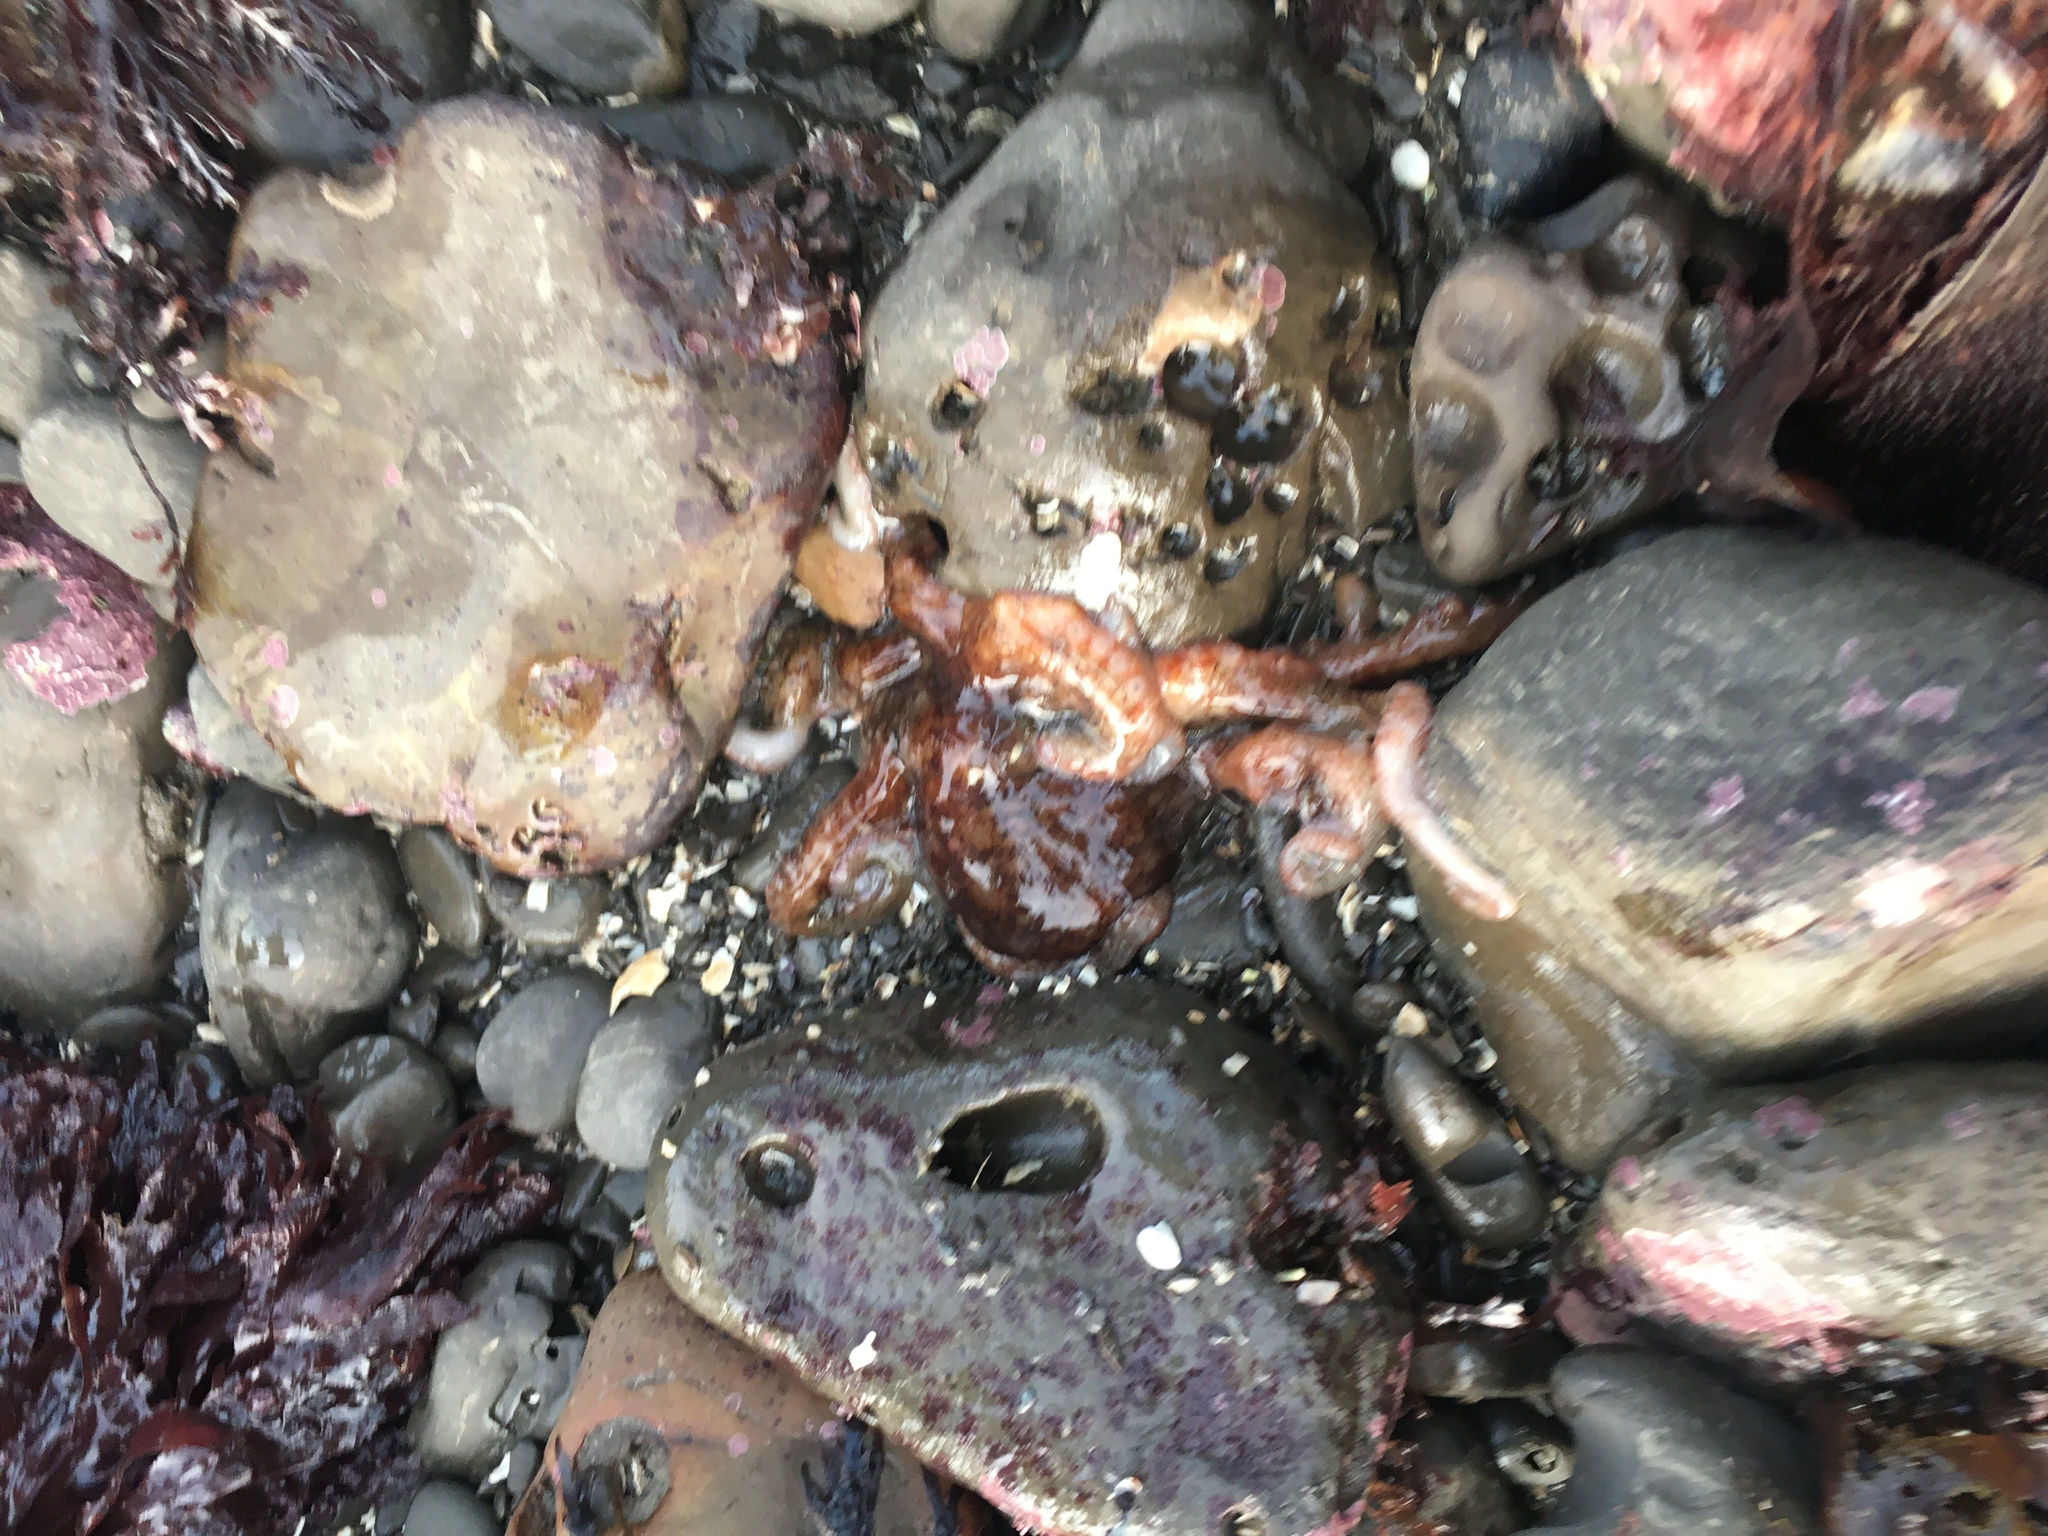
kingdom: Animalia
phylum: Mollusca
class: Cephalopoda
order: Octopoda
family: Octopodidae
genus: Octopus
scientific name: Octopus rubescens
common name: East pacific red octopus
